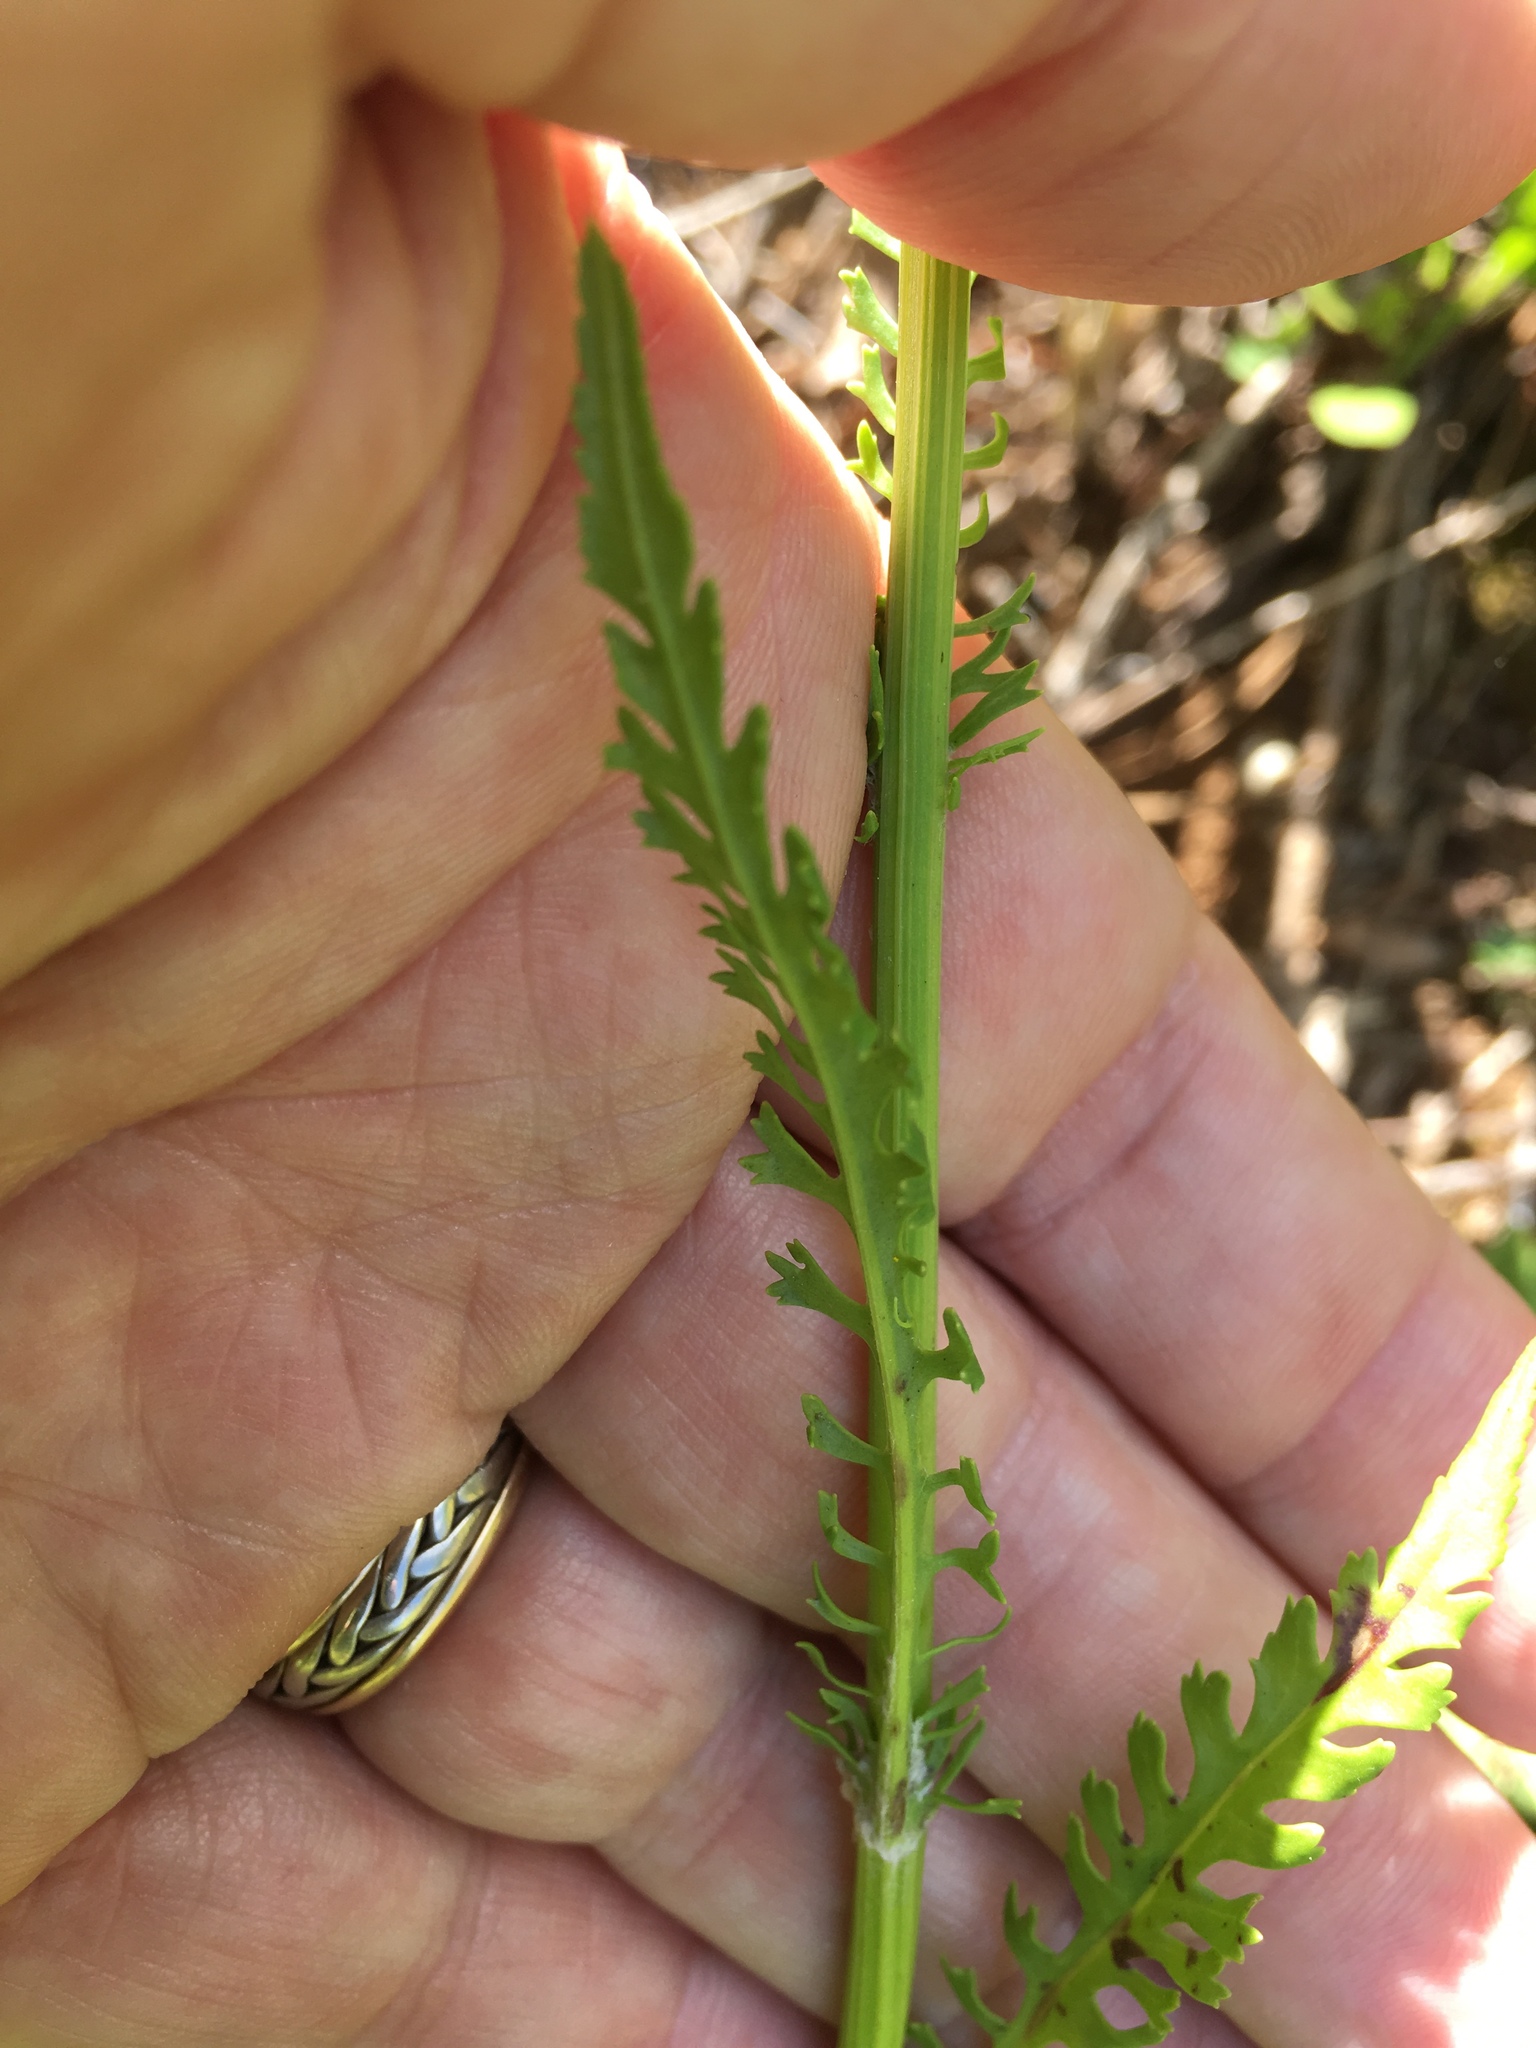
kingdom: Plantae
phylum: Tracheophyta
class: Magnoliopsida
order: Asterales
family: Asteraceae
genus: Packera
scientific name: Packera anonyma
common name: Small ragwort
